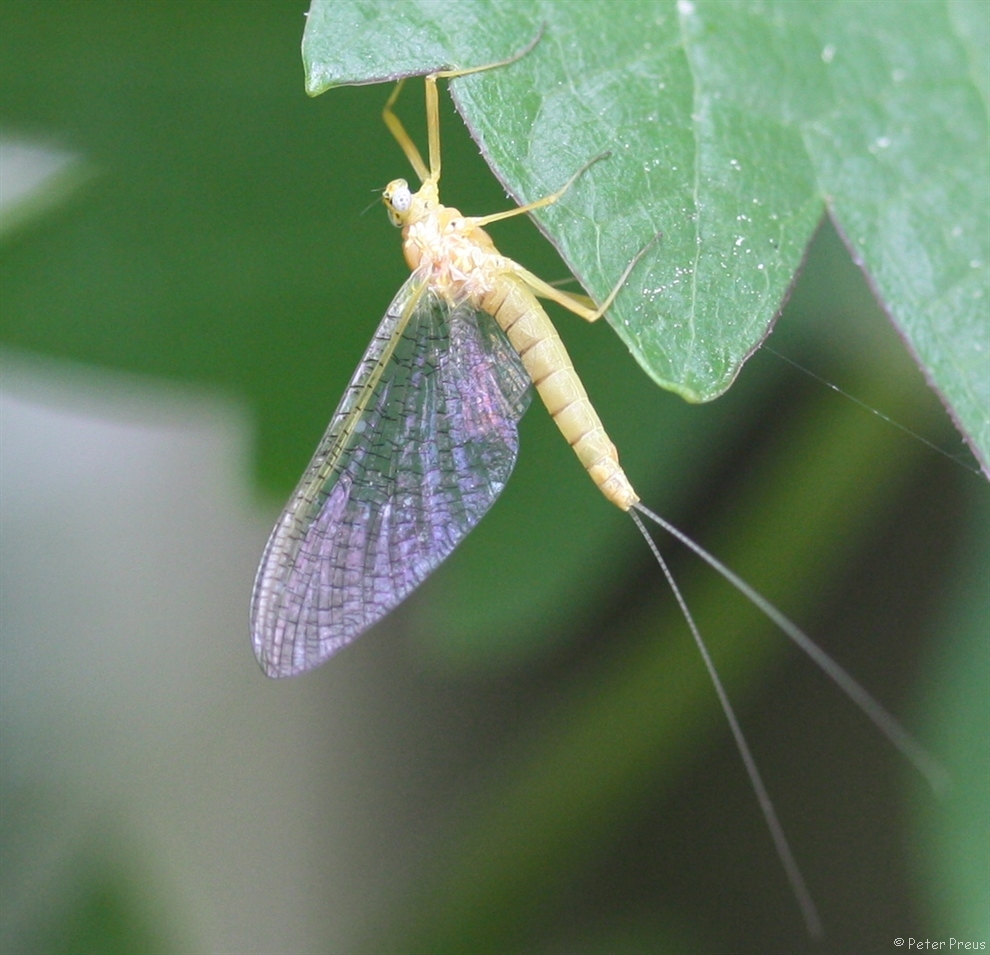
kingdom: Animalia
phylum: Arthropoda
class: Insecta
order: Ephemeroptera
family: Heptageniidae
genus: Heptagenia
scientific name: Heptagenia sulphurea
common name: Yellow may dun
